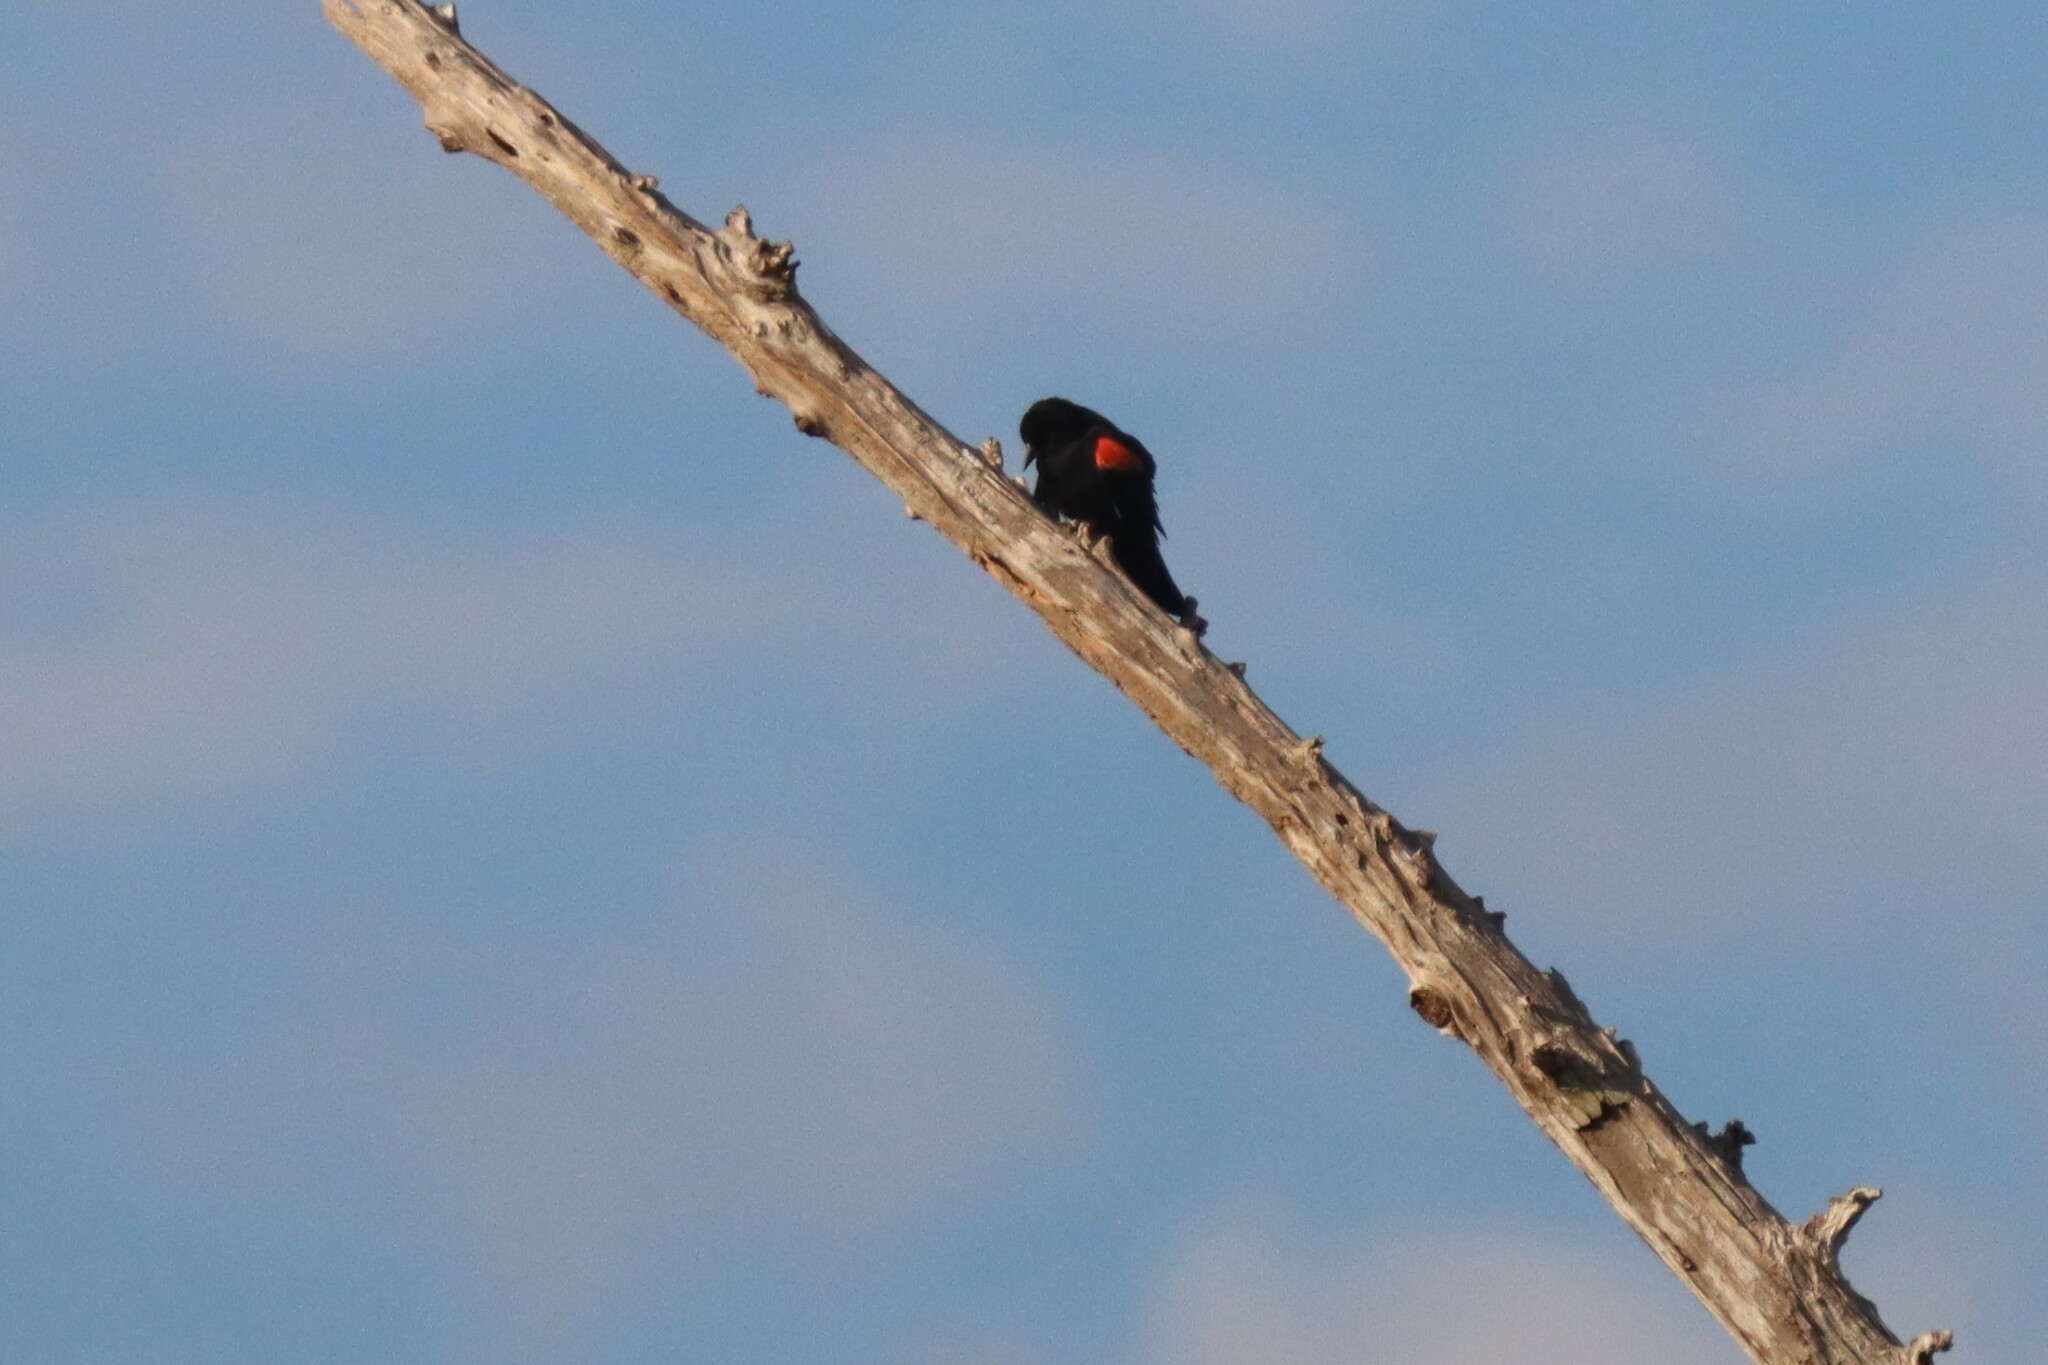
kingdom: Animalia
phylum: Chordata
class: Aves
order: Passeriformes
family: Icteridae
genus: Agelaius
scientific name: Agelaius phoeniceus
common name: Red-winged blackbird
